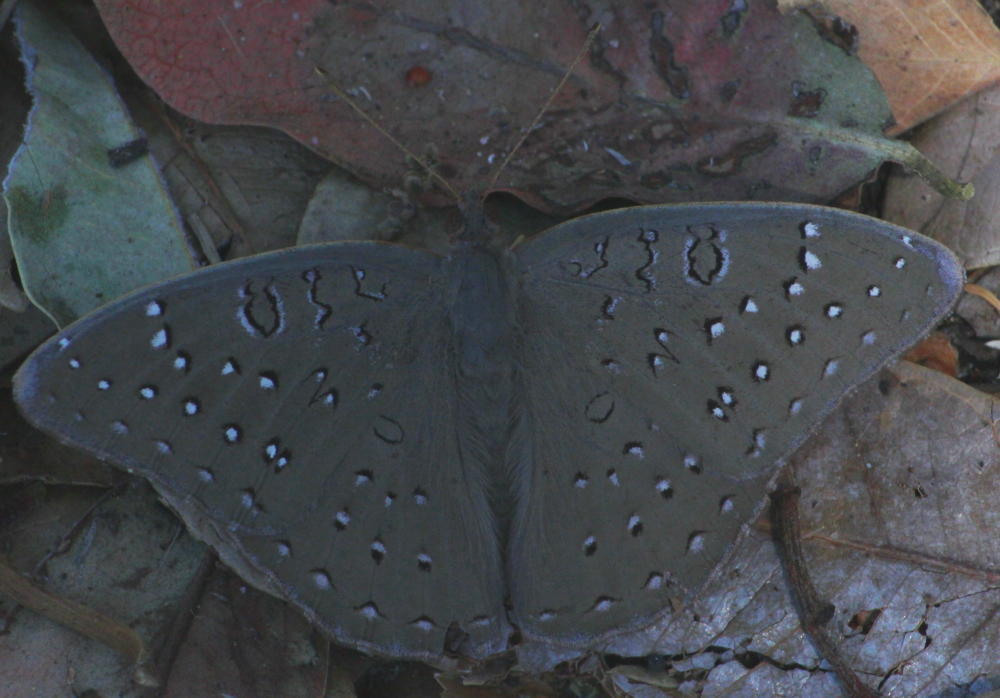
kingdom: Animalia
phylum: Arthropoda
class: Insecta
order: Lepidoptera
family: Nymphalidae
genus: Hamanumida
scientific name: Hamanumida daedalus
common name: Guinea-fowl butterfly
